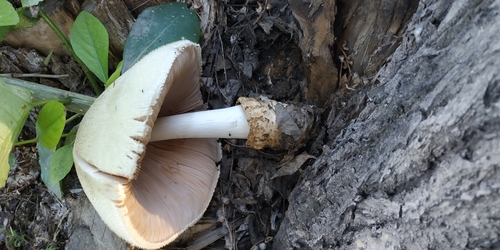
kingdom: Fungi
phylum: Basidiomycota
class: Agaricomycetes
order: Agaricales
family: Pluteaceae
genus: Volvariella
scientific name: Volvariella bombycina
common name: Silky rosegill
